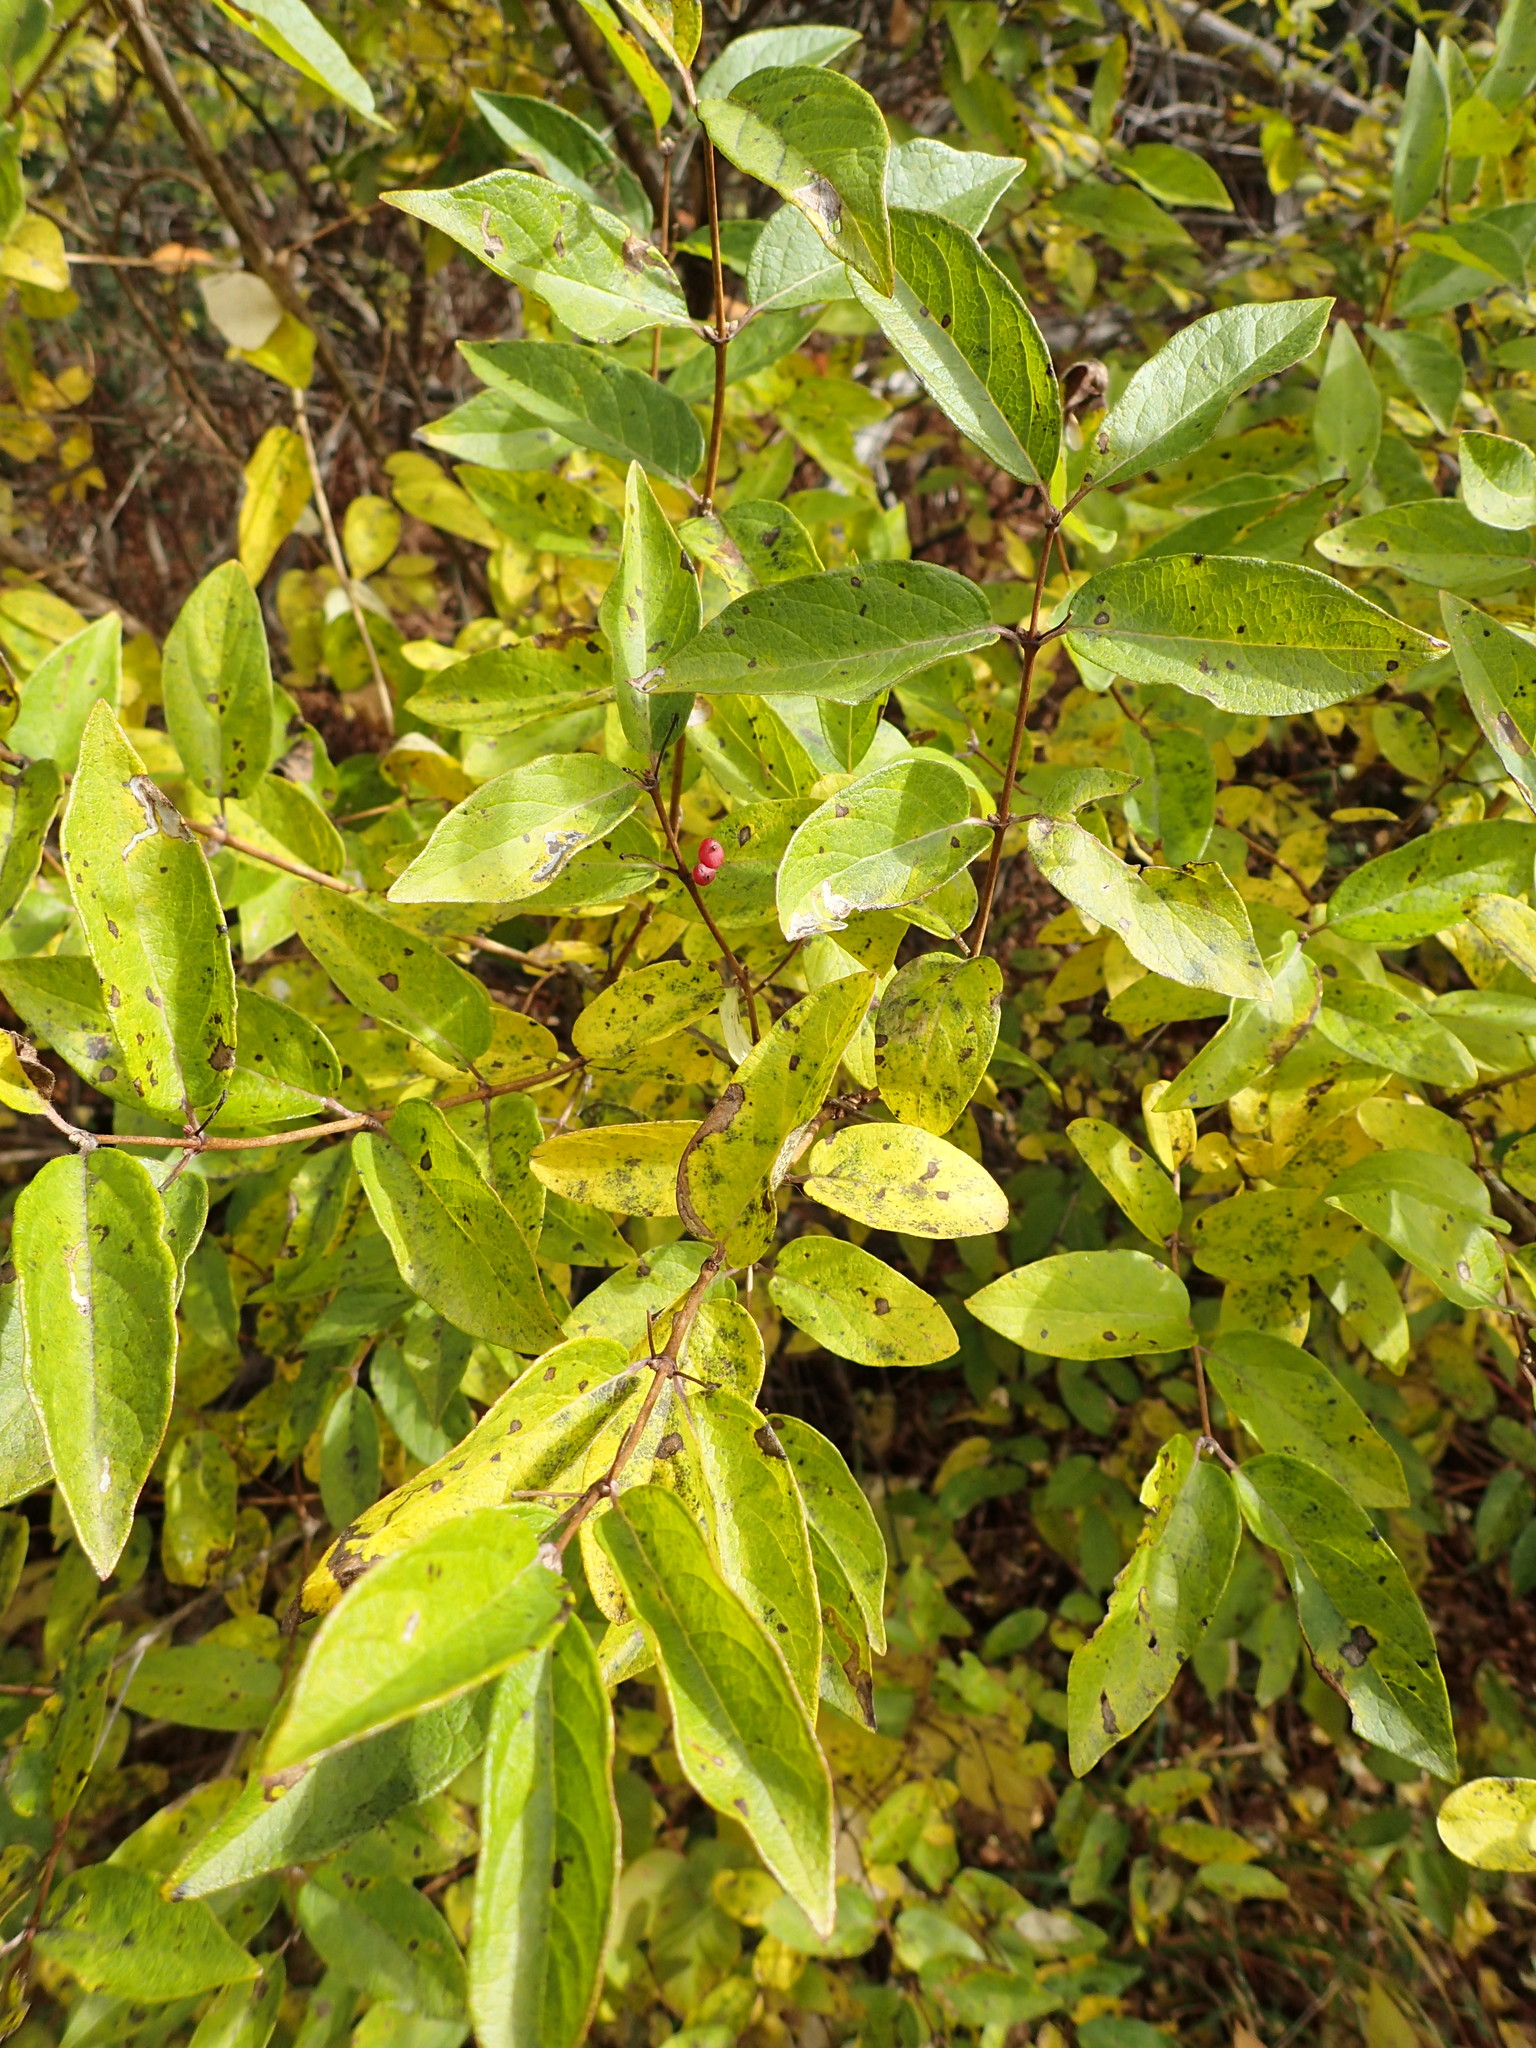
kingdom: Plantae
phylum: Tracheophyta
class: Magnoliopsida
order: Dipsacales
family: Caprifoliaceae
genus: Lonicera
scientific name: Lonicera tatarica
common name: Tatarian honeysuckle
